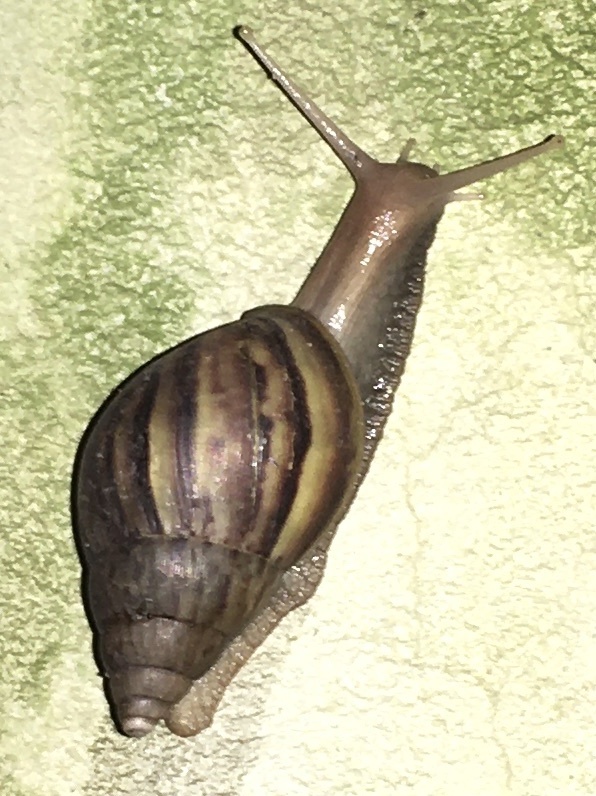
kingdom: Animalia
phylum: Mollusca
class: Gastropoda
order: Stylommatophora
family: Achatinidae
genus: Lissachatina
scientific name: Lissachatina fulica
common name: Giant african snail
